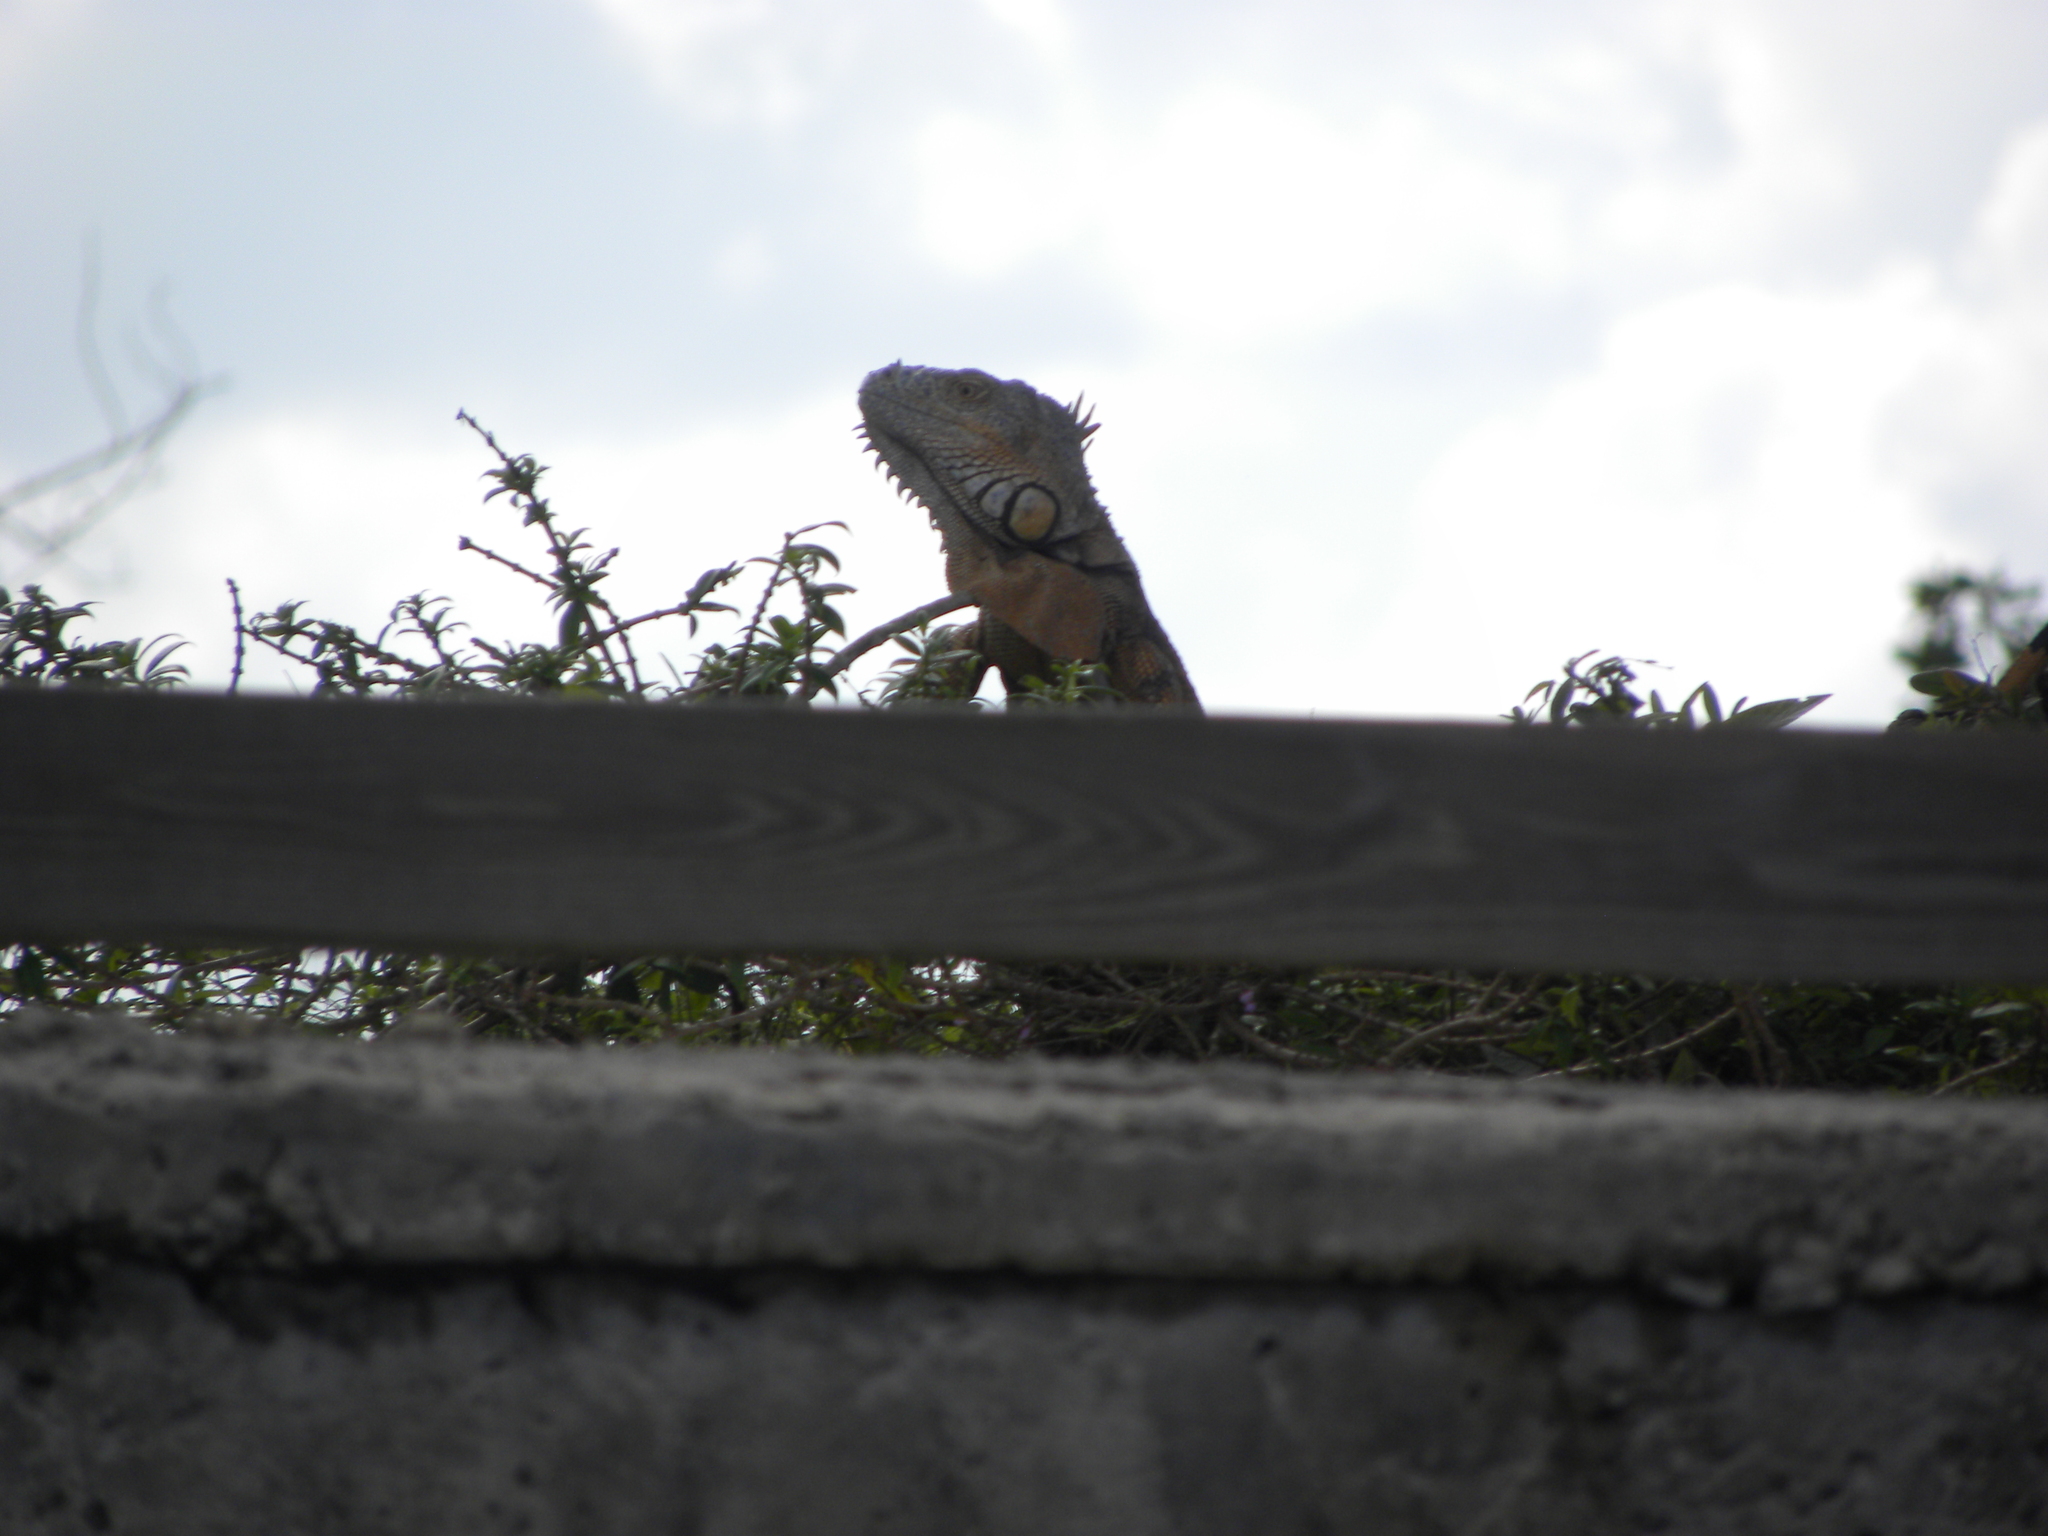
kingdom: Animalia
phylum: Chordata
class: Squamata
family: Iguanidae
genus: Iguana
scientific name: Iguana iguana
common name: Green iguana
